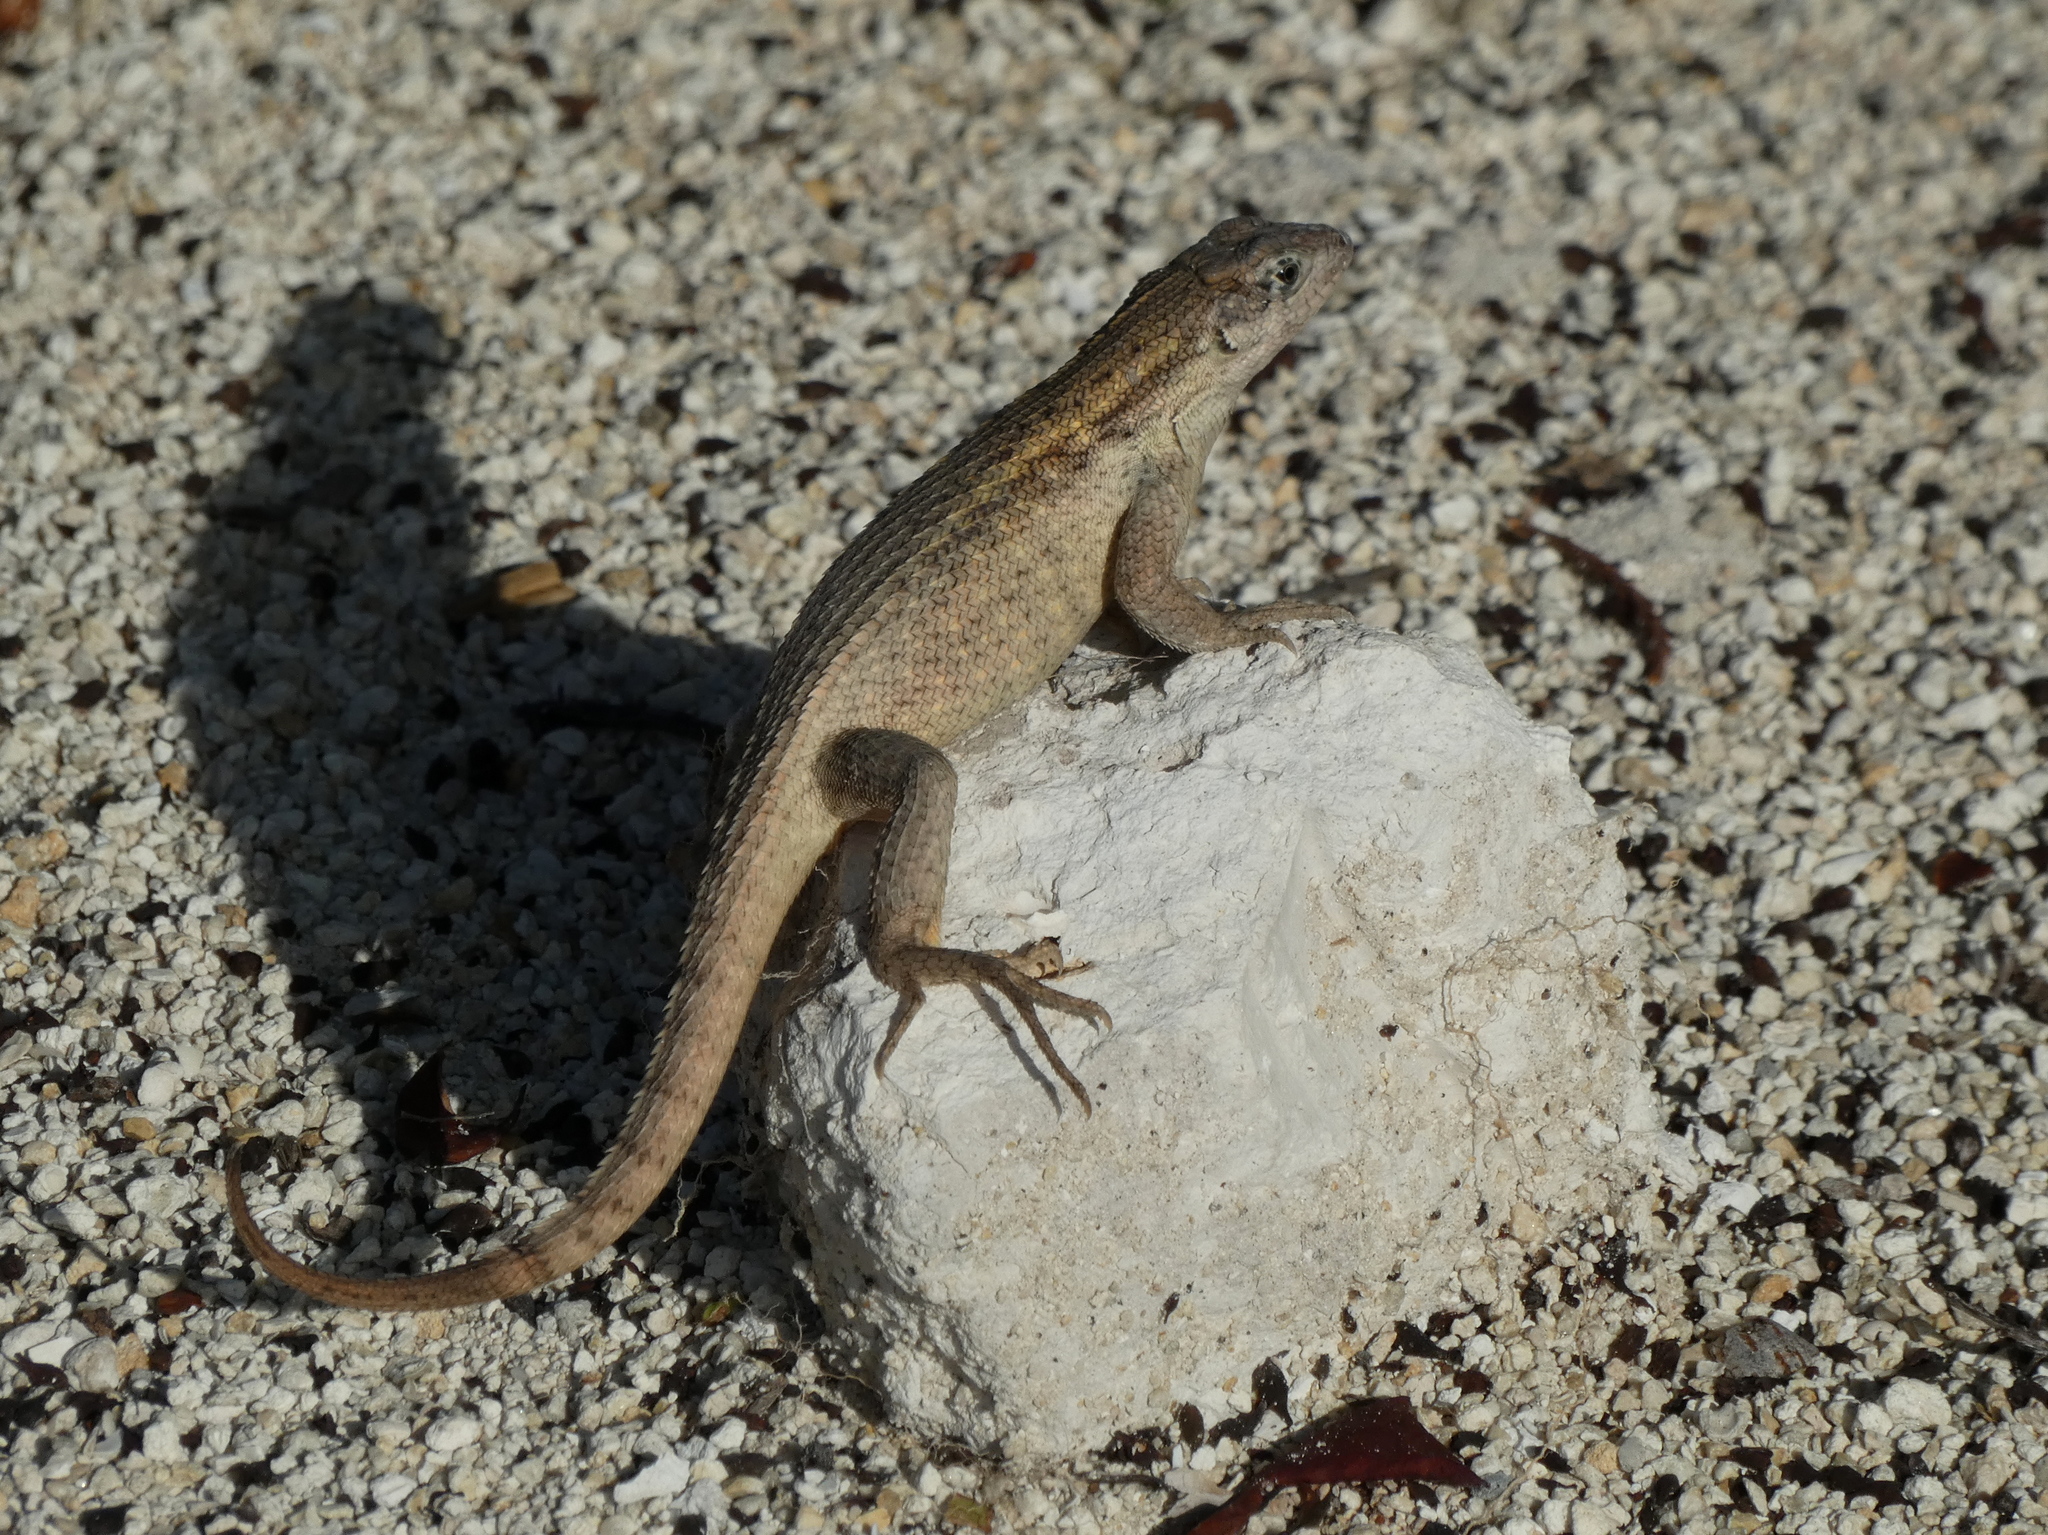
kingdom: Animalia
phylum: Chordata
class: Squamata
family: Leiocephalidae
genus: Leiocephalus
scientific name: Leiocephalus carinatus
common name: Northern curly-tailed lizard
